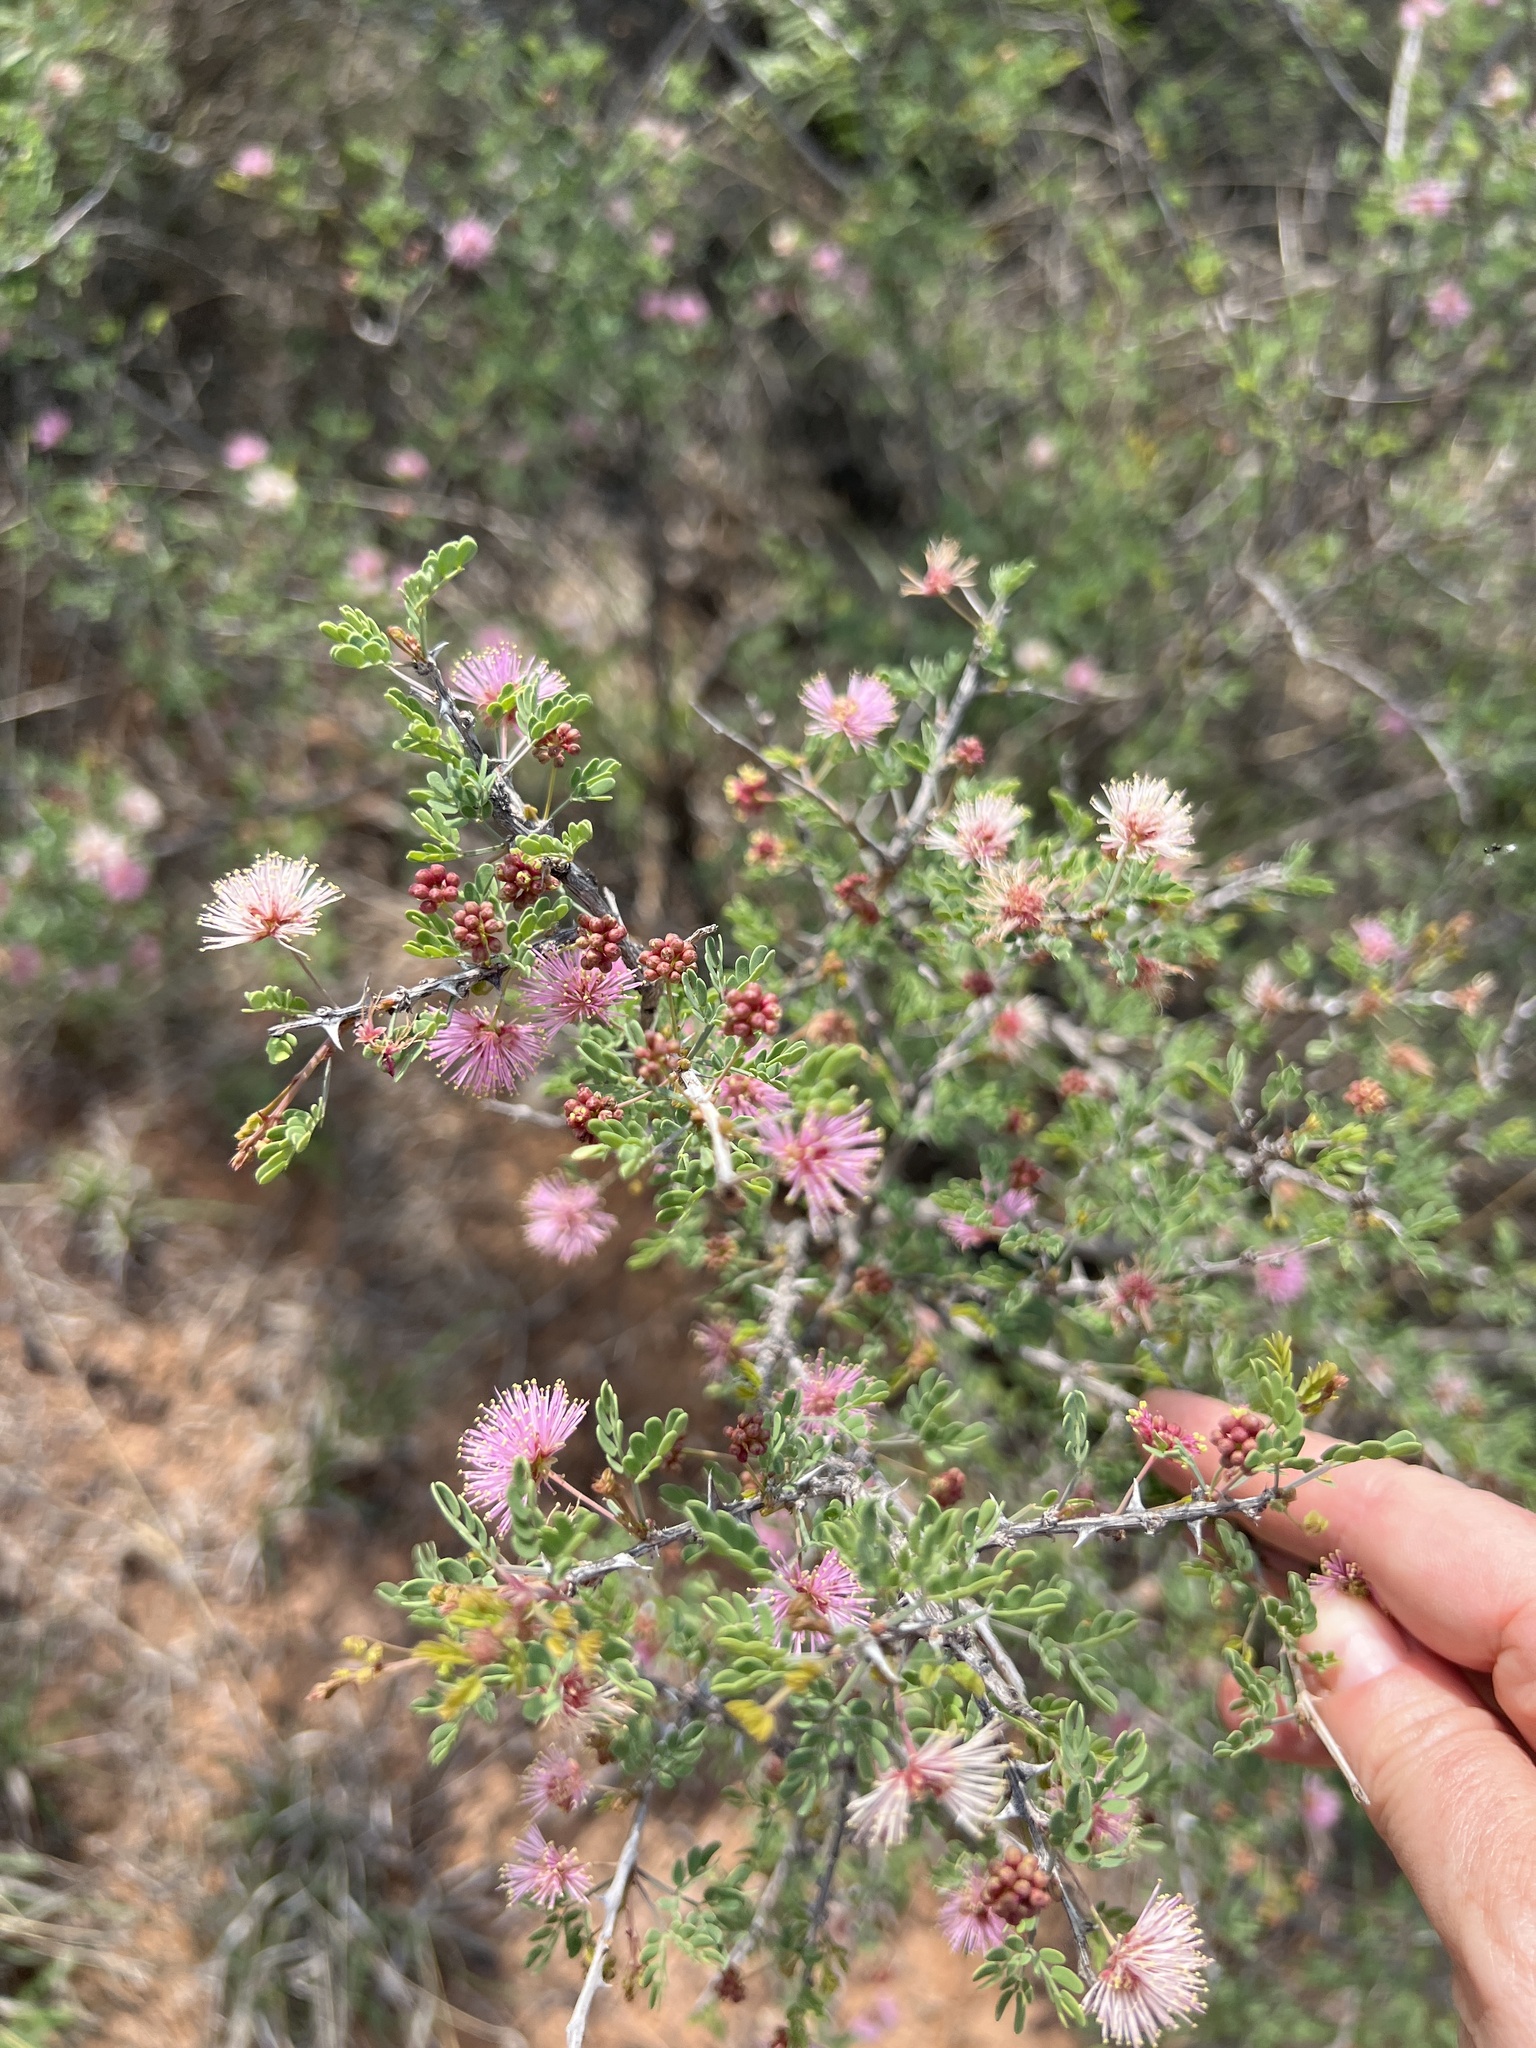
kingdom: Plantae
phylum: Tracheophyta
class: Magnoliopsida
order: Fabales
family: Fabaceae
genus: Mimosa
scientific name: Mimosa borealis
